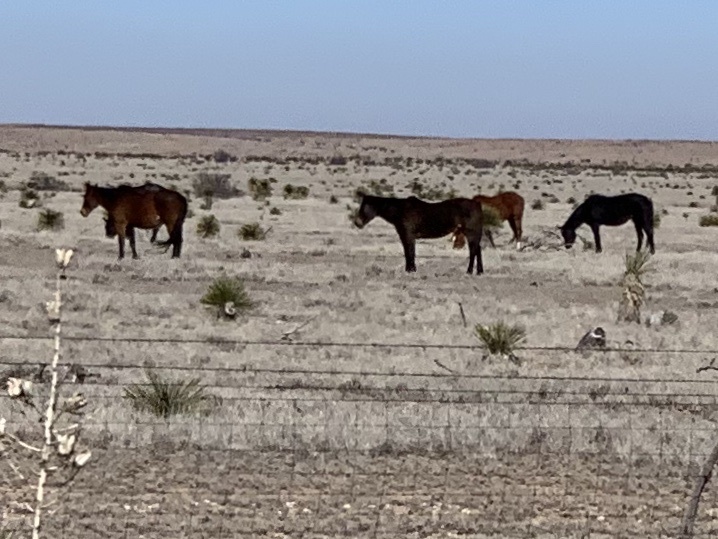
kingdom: Animalia
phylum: Chordata
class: Mammalia
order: Perissodactyla
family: Equidae
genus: Equus
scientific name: Equus caballus
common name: Horse
